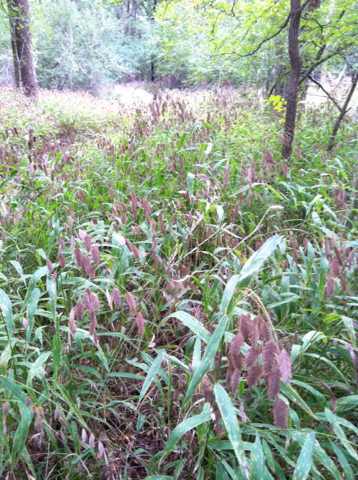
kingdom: Plantae
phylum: Tracheophyta
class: Liliopsida
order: Poales
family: Poaceae
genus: Chasmanthium
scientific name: Chasmanthium latifolium
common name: Broad-leaved chasmanthium
